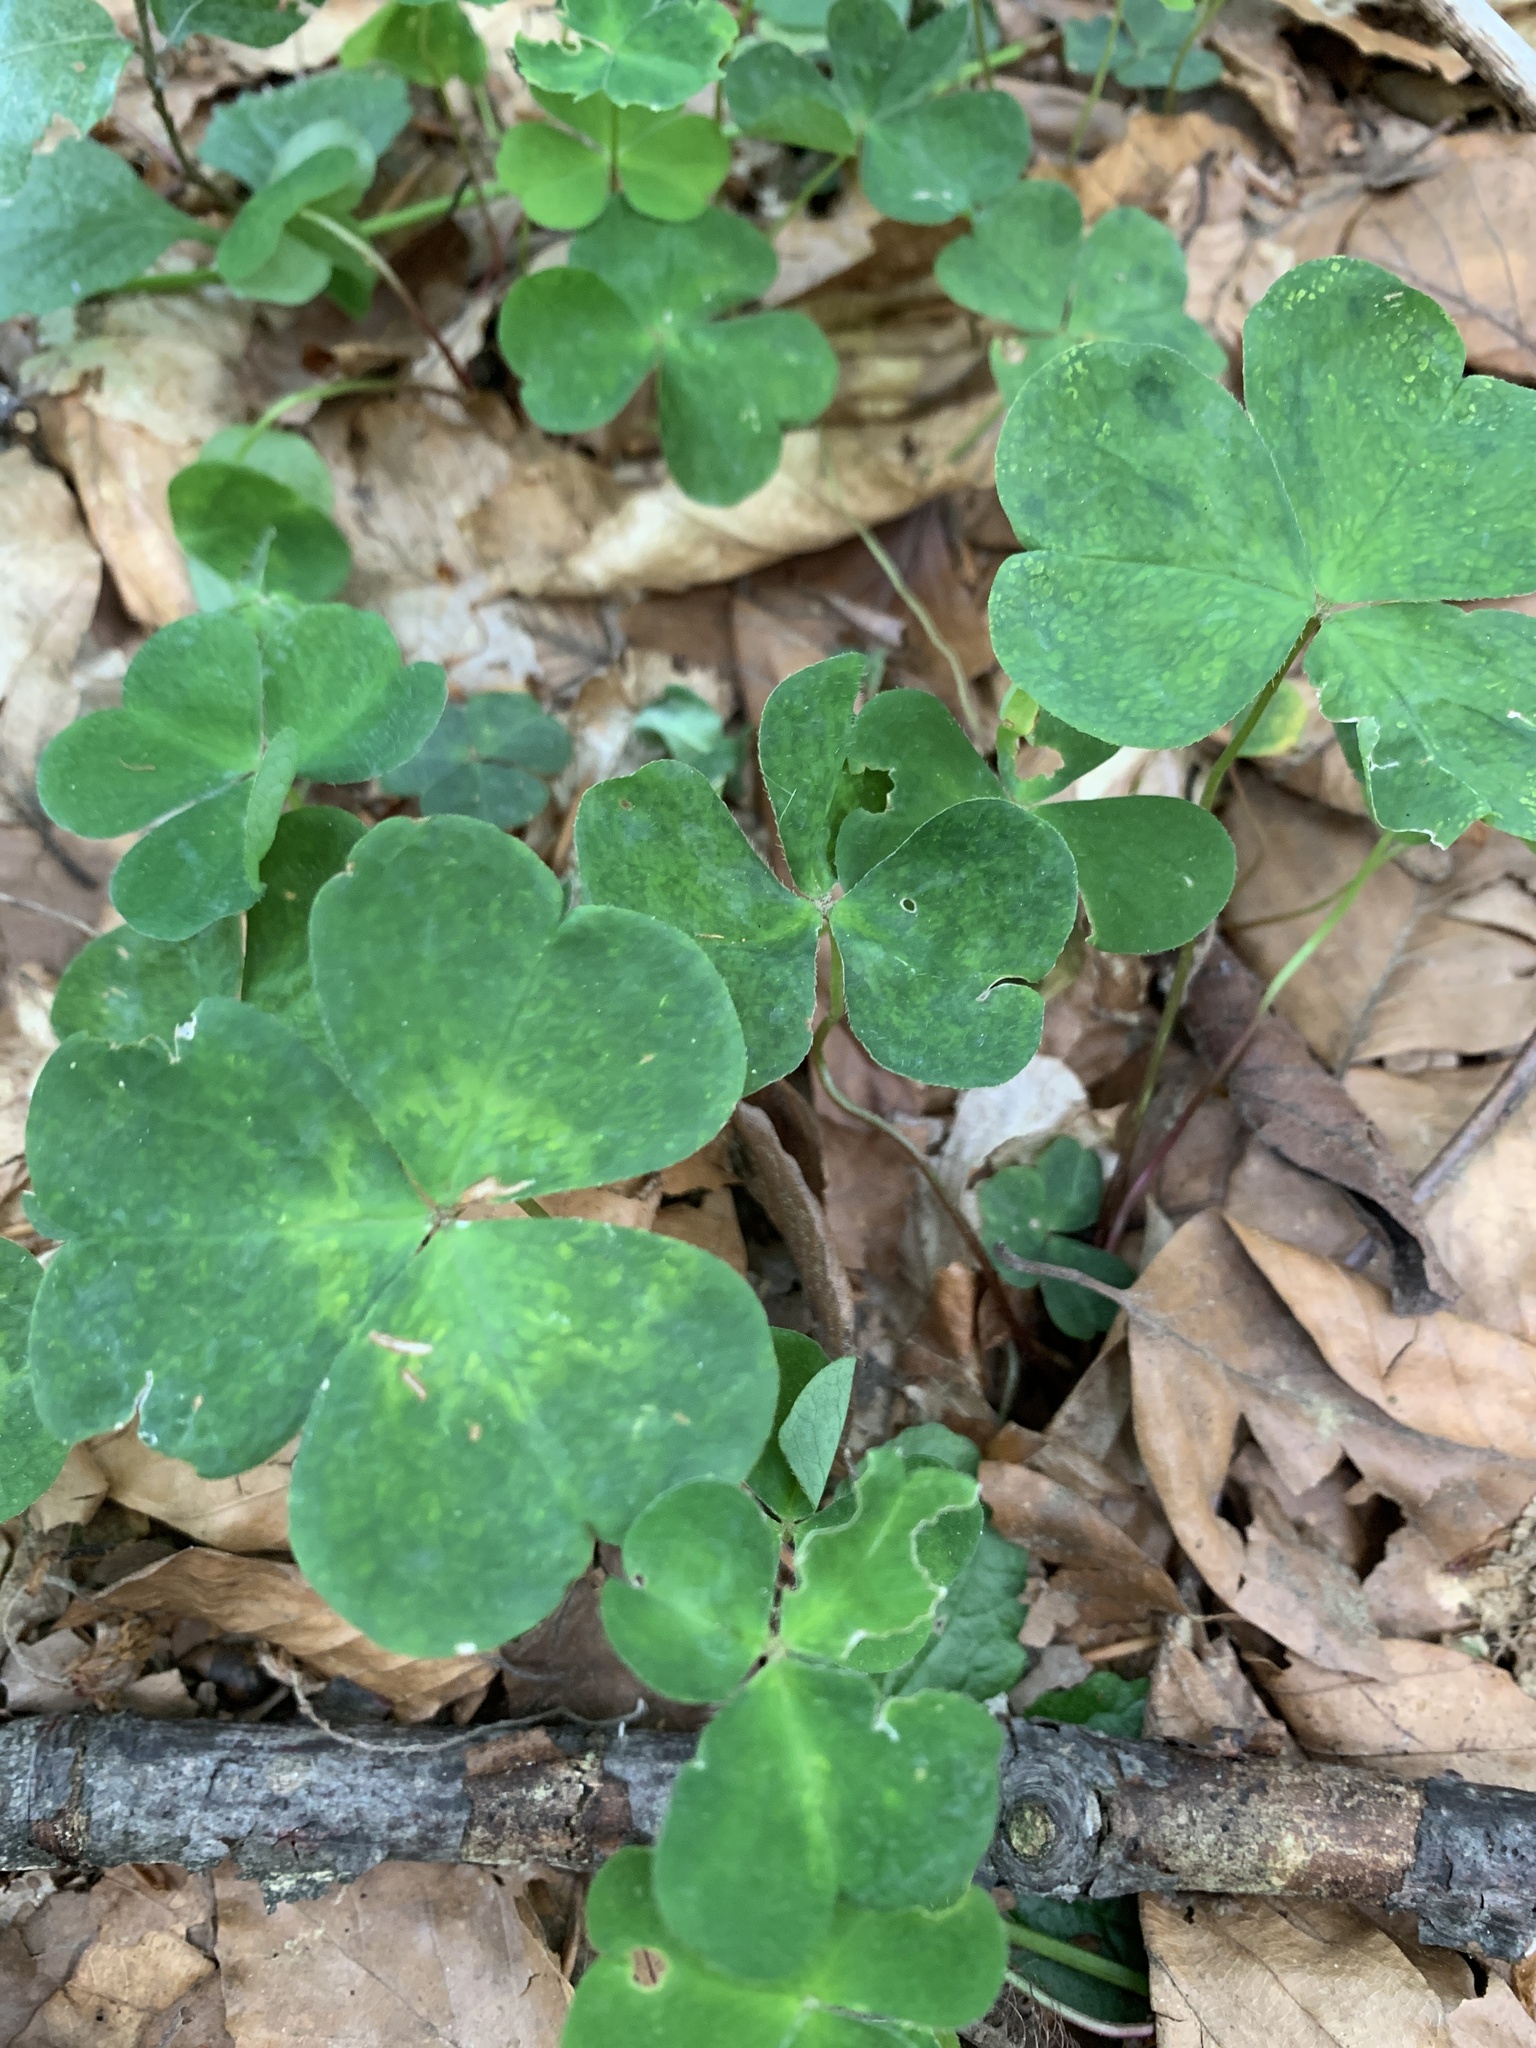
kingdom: Plantae
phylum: Tracheophyta
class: Magnoliopsida
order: Oxalidales
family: Oxalidaceae
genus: Oxalis
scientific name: Oxalis acetosella
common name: Wood-sorrel
